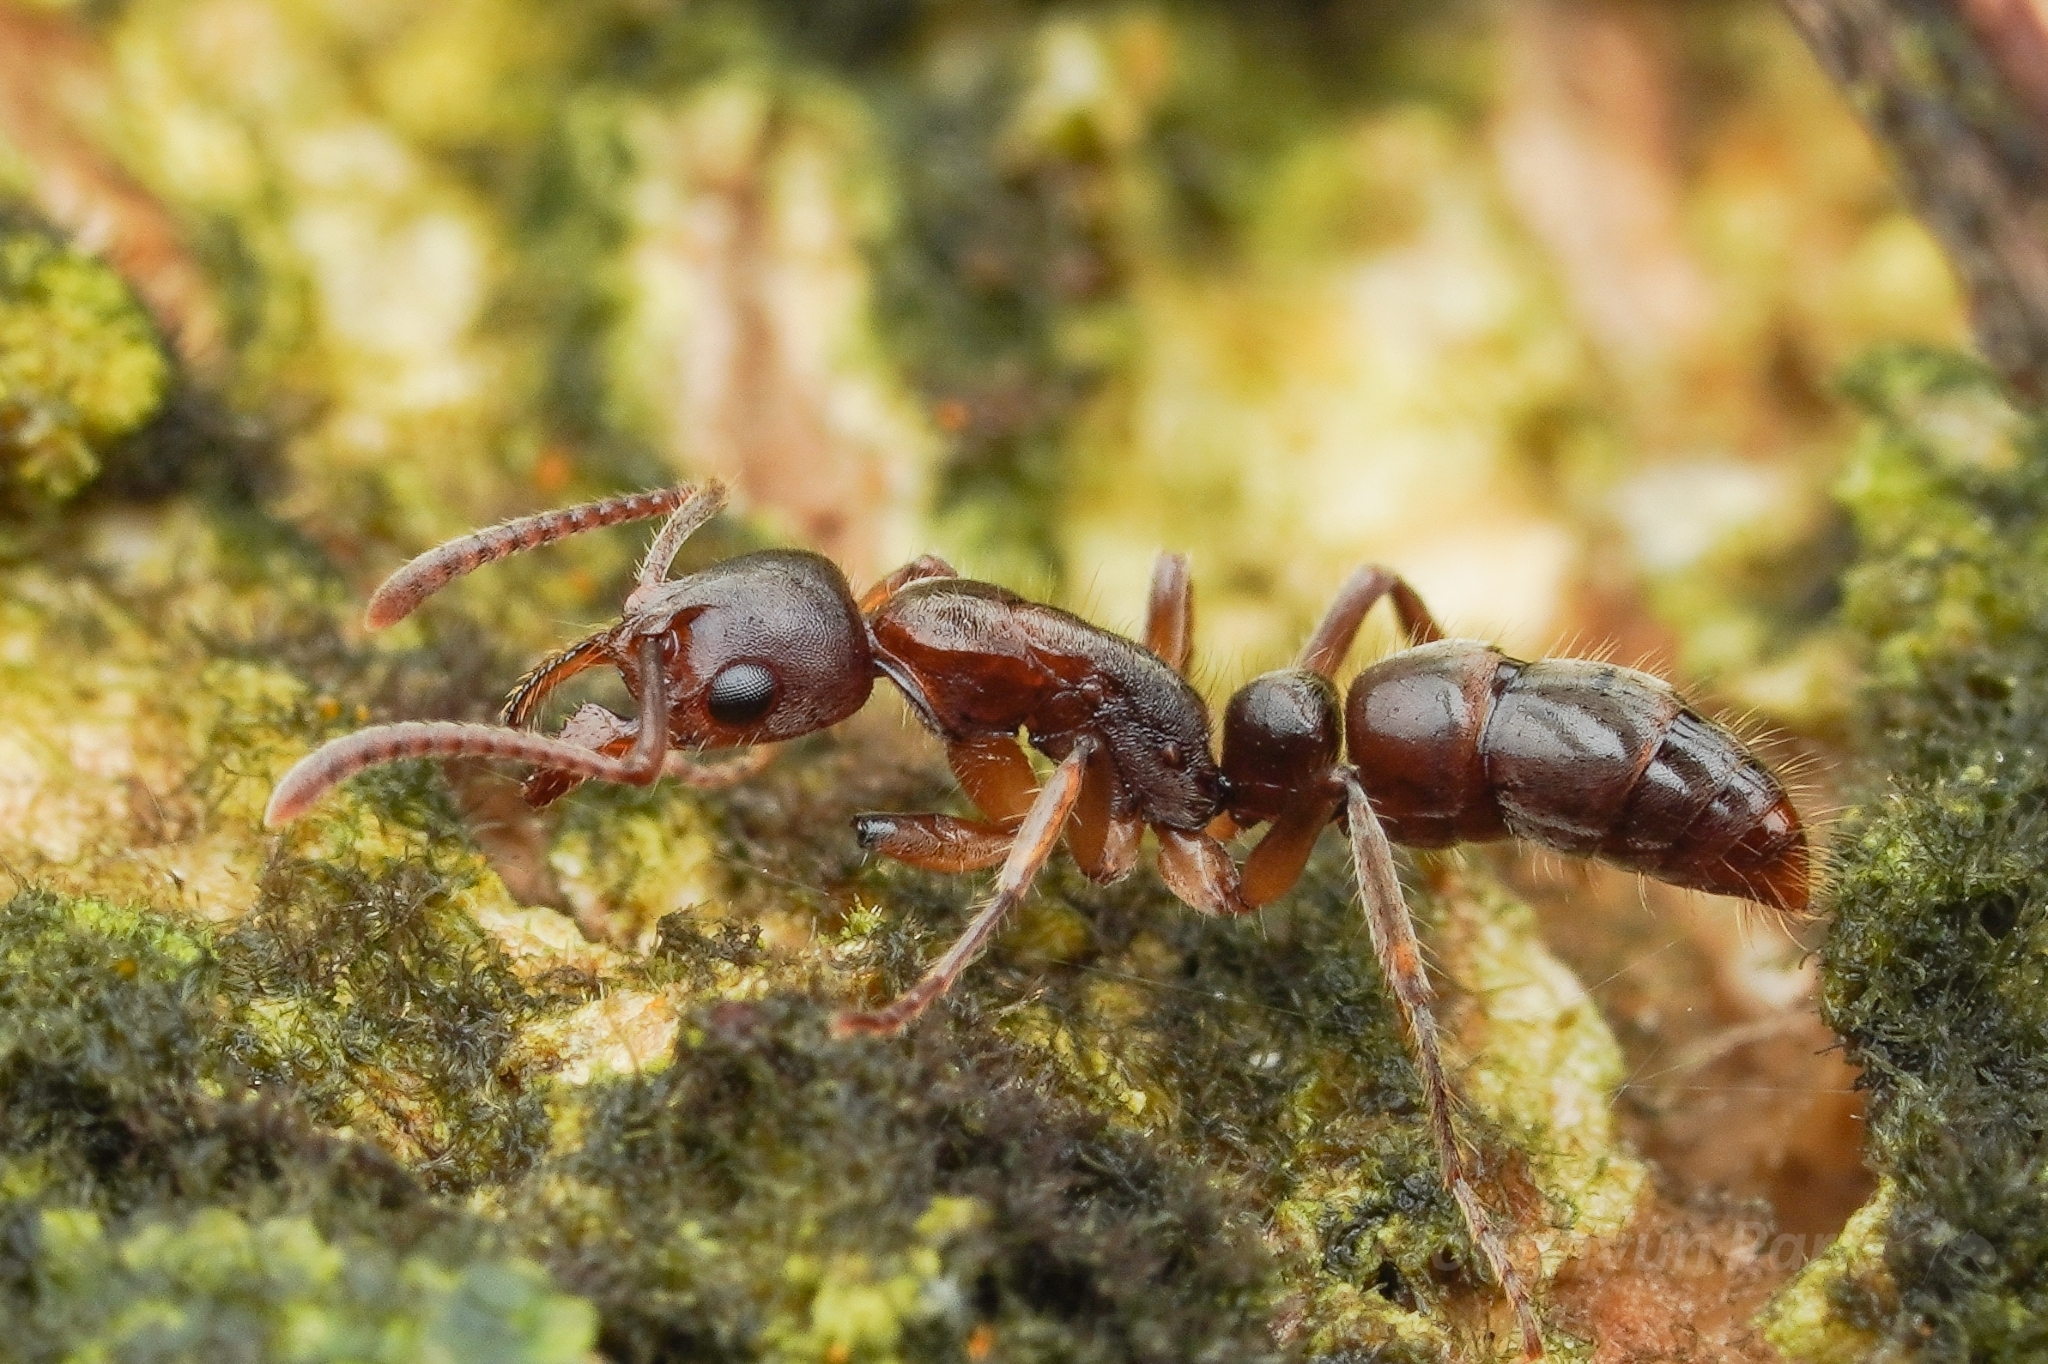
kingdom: Animalia
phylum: Arthropoda
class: Insecta
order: Hymenoptera
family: Formicidae
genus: Pachycondyla
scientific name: Pachycondyla crenata
